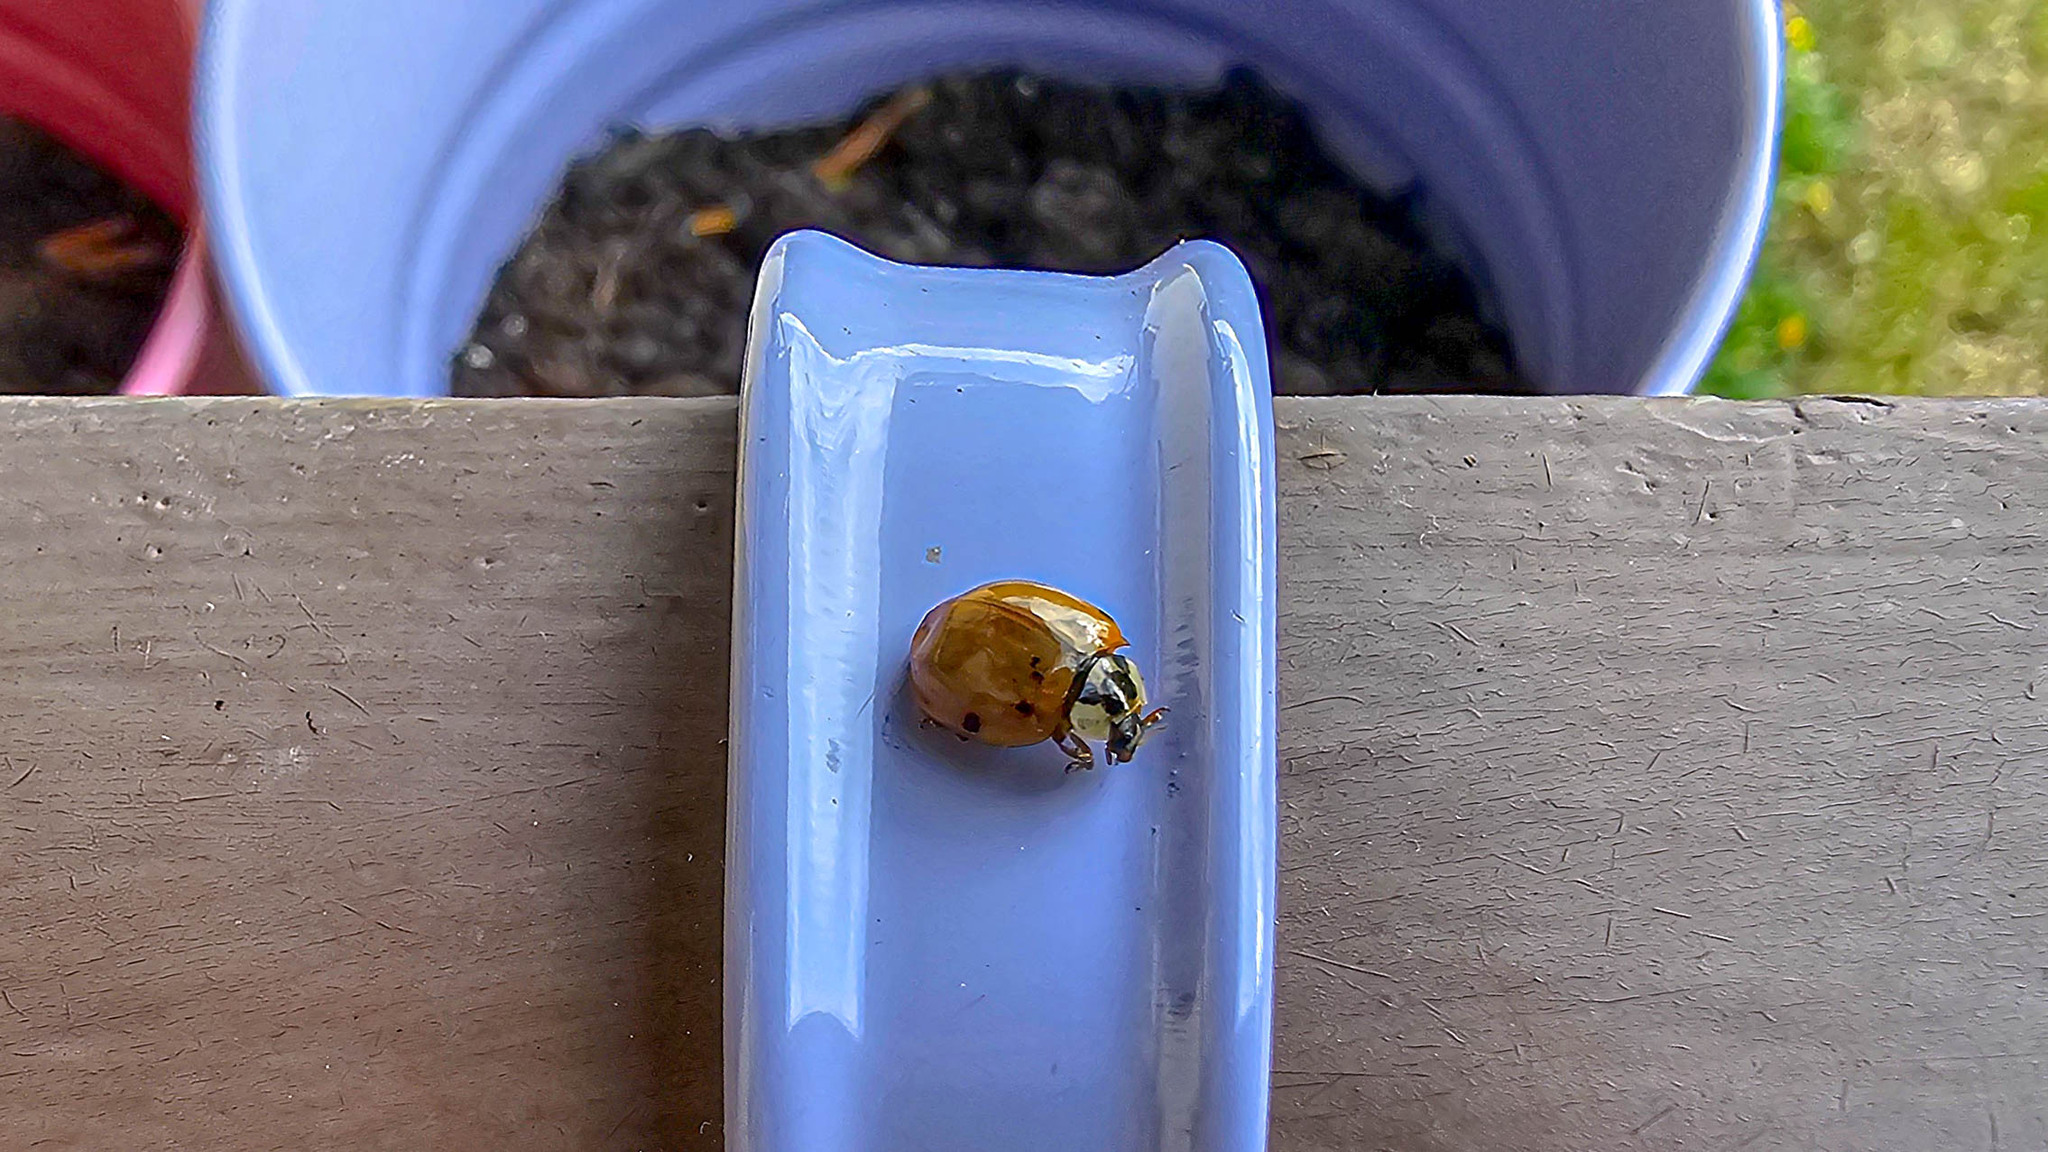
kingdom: Animalia
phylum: Arthropoda
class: Insecta
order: Coleoptera
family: Coccinellidae
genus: Harmonia
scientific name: Harmonia axyridis
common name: Harlequin ladybird
